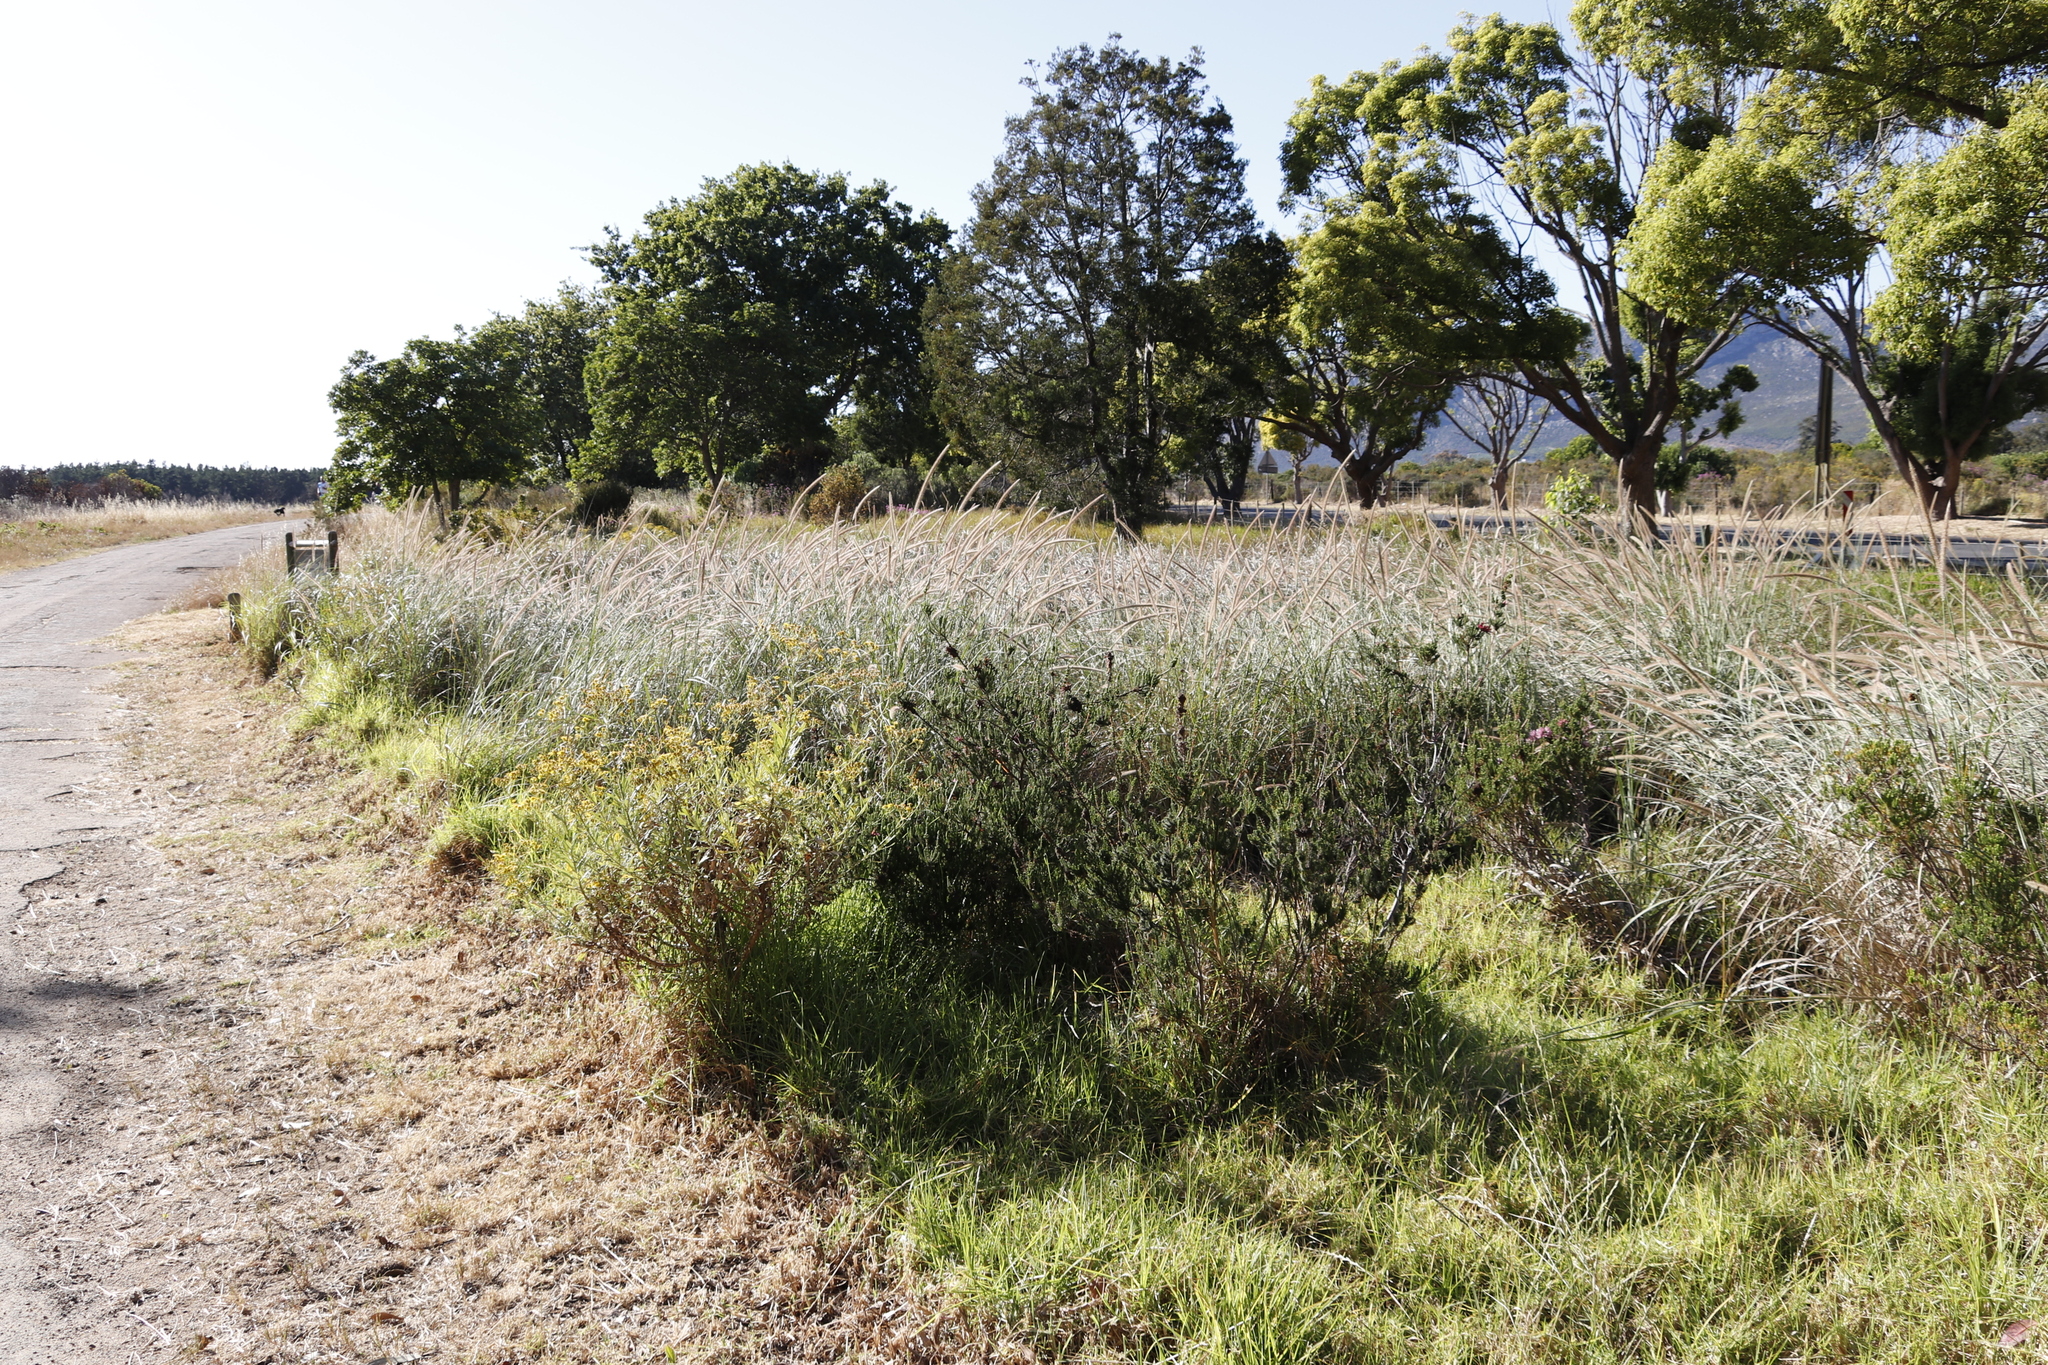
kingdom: Plantae
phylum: Tracheophyta
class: Magnoliopsida
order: Ericales
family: Ericaceae
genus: Erica
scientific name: Erica verticillata
